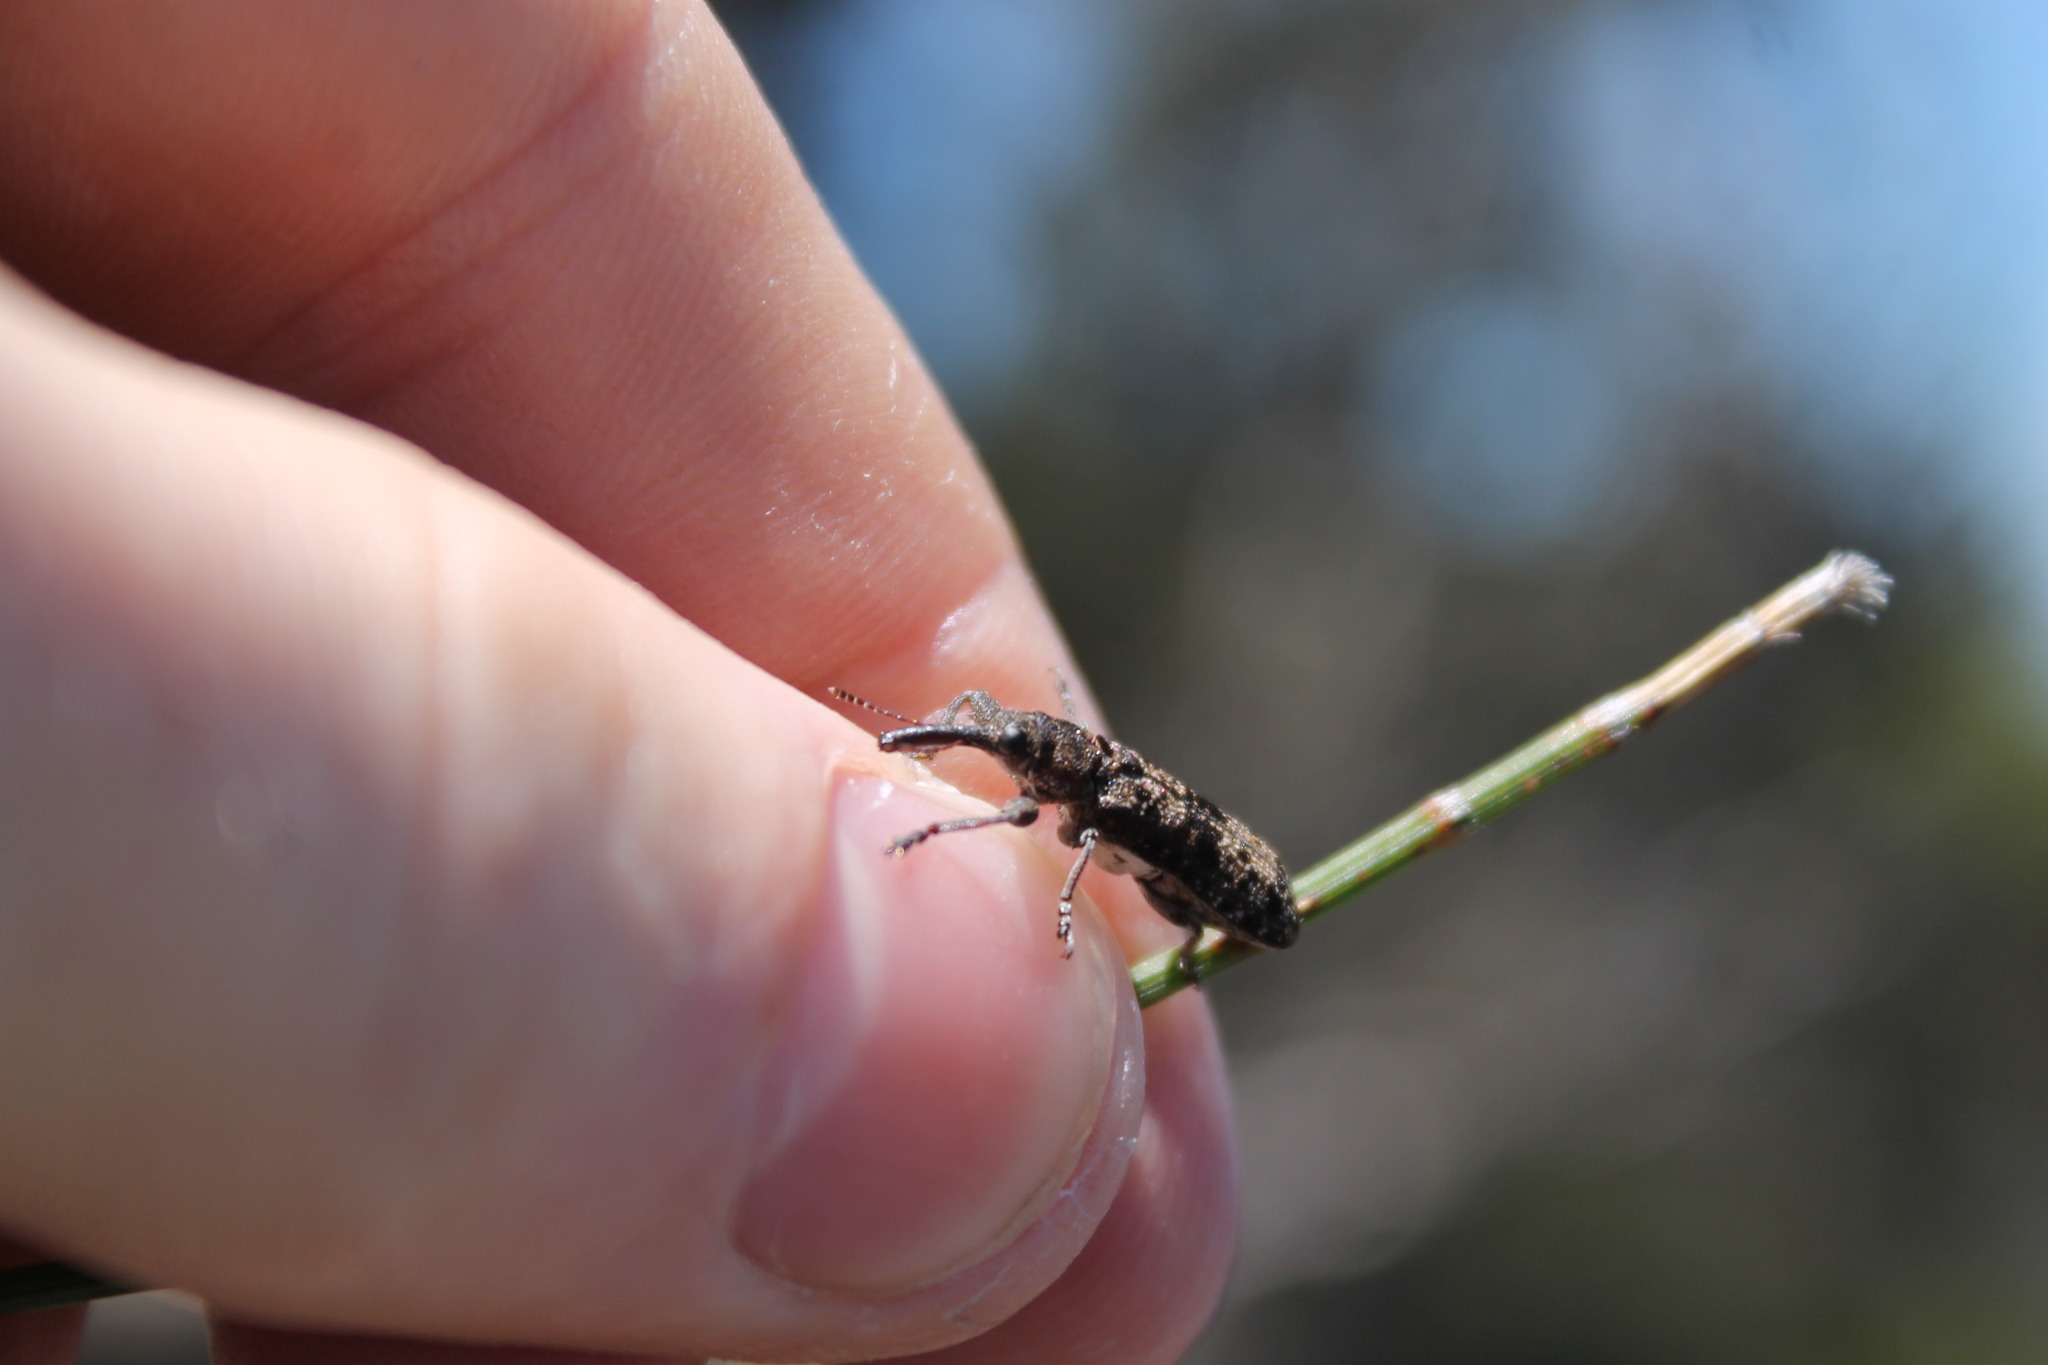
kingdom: Animalia
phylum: Arthropoda
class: Insecta
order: Coleoptera
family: Belidae
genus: Isacantha
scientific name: Isacantha punctirostris
